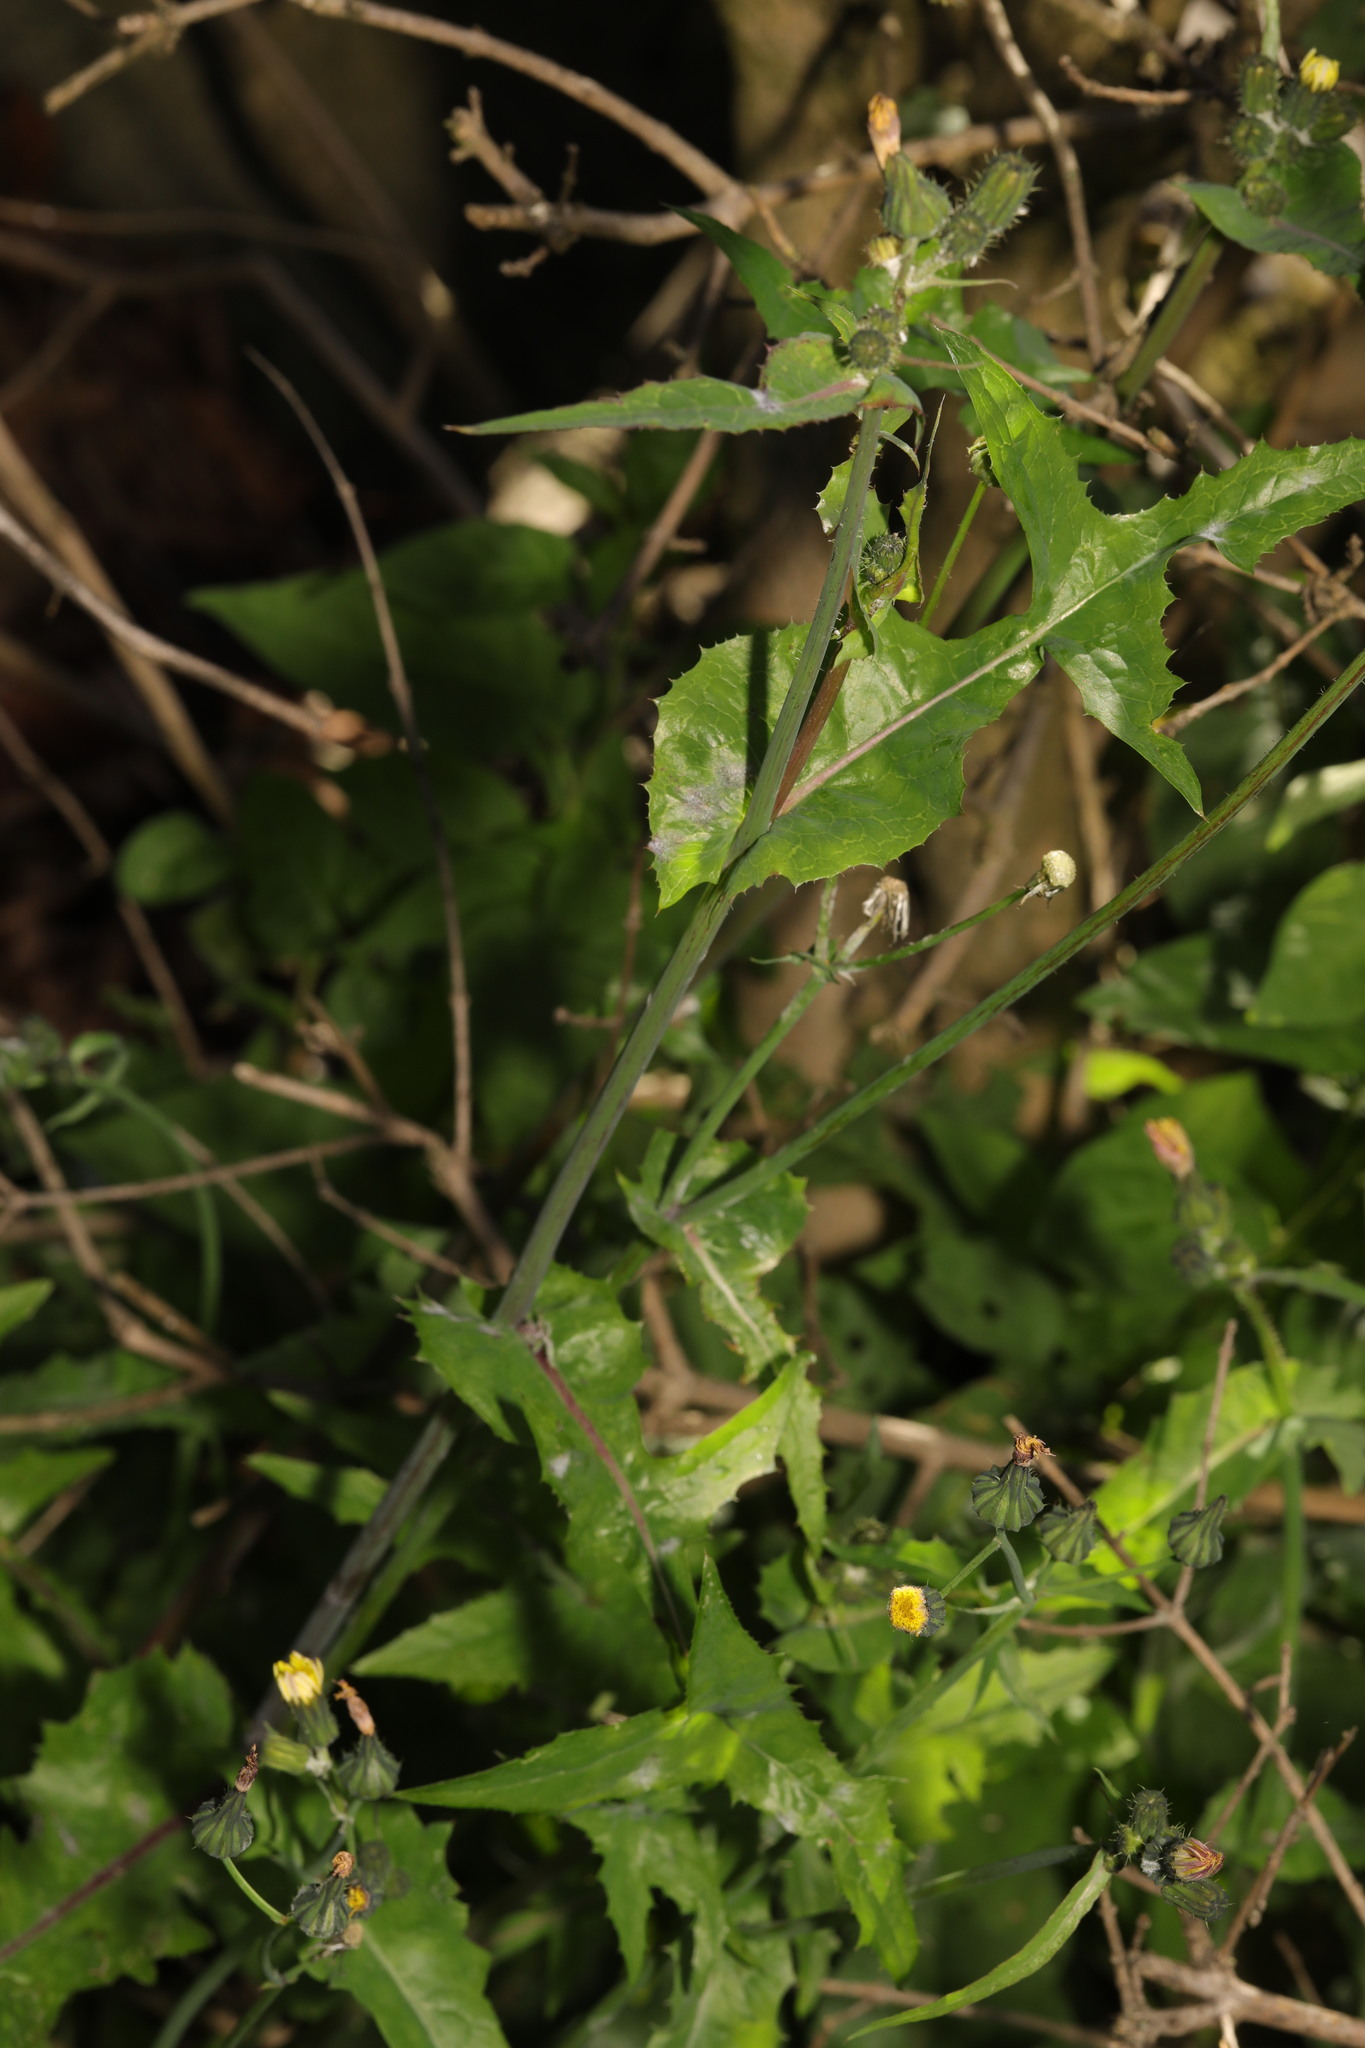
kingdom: Plantae
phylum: Tracheophyta
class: Magnoliopsida
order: Asterales
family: Asteraceae
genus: Sonchus
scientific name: Sonchus oleraceus
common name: Common sowthistle
